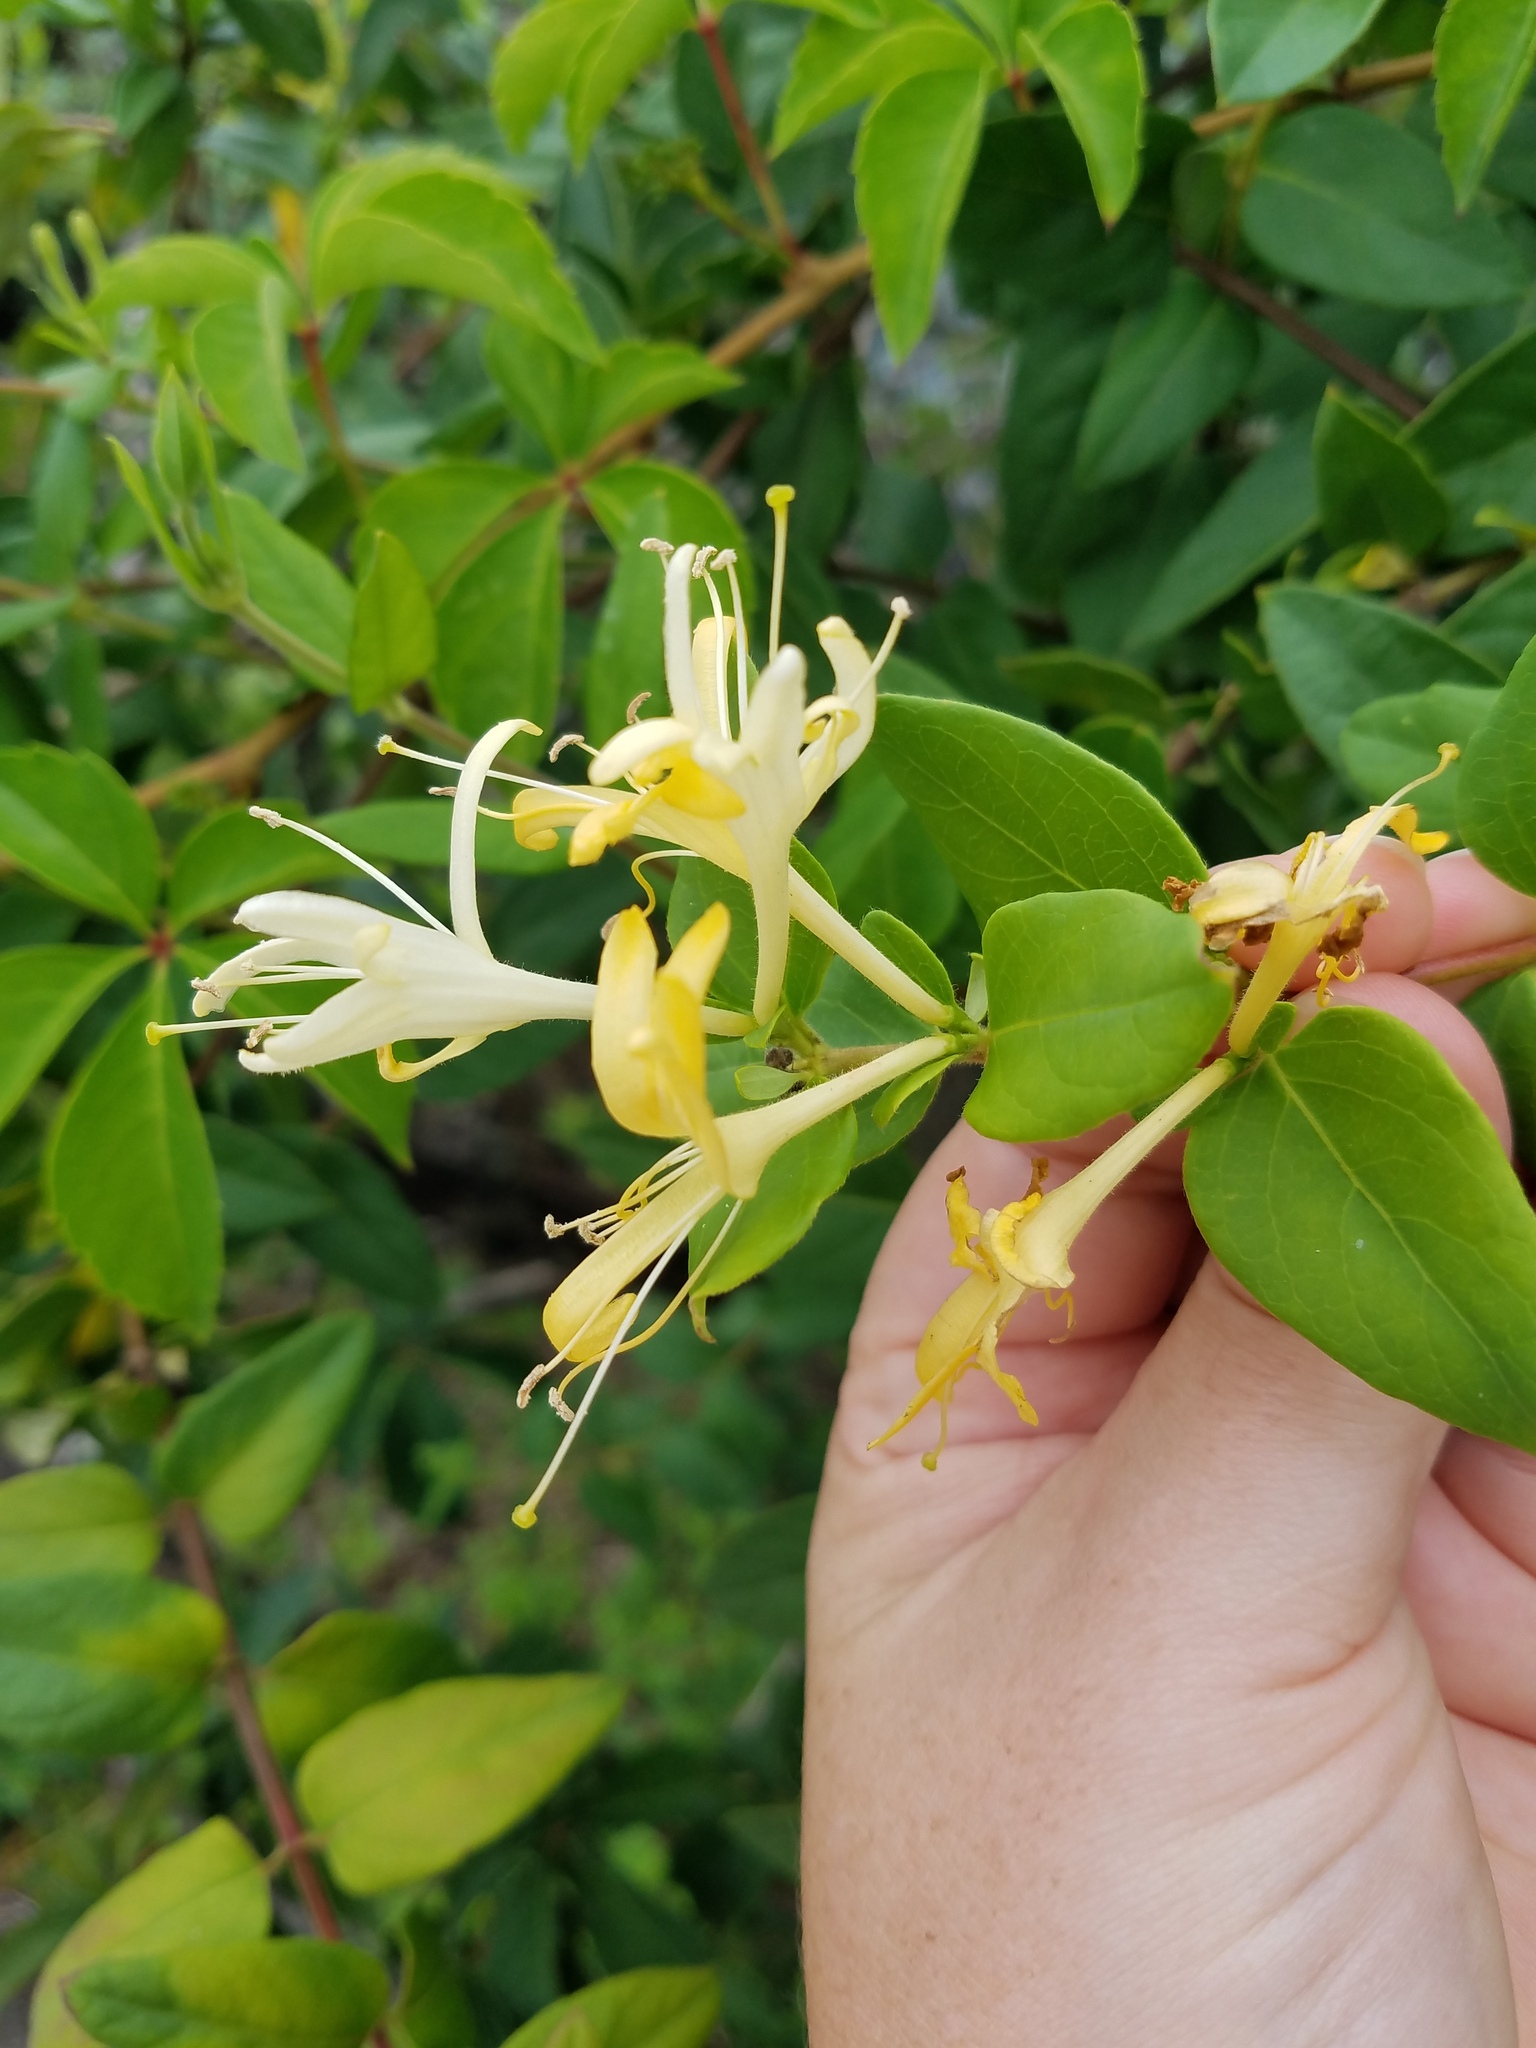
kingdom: Plantae
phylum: Tracheophyta
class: Magnoliopsida
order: Dipsacales
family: Caprifoliaceae
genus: Lonicera
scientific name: Lonicera japonica
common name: Japanese honeysuckle
